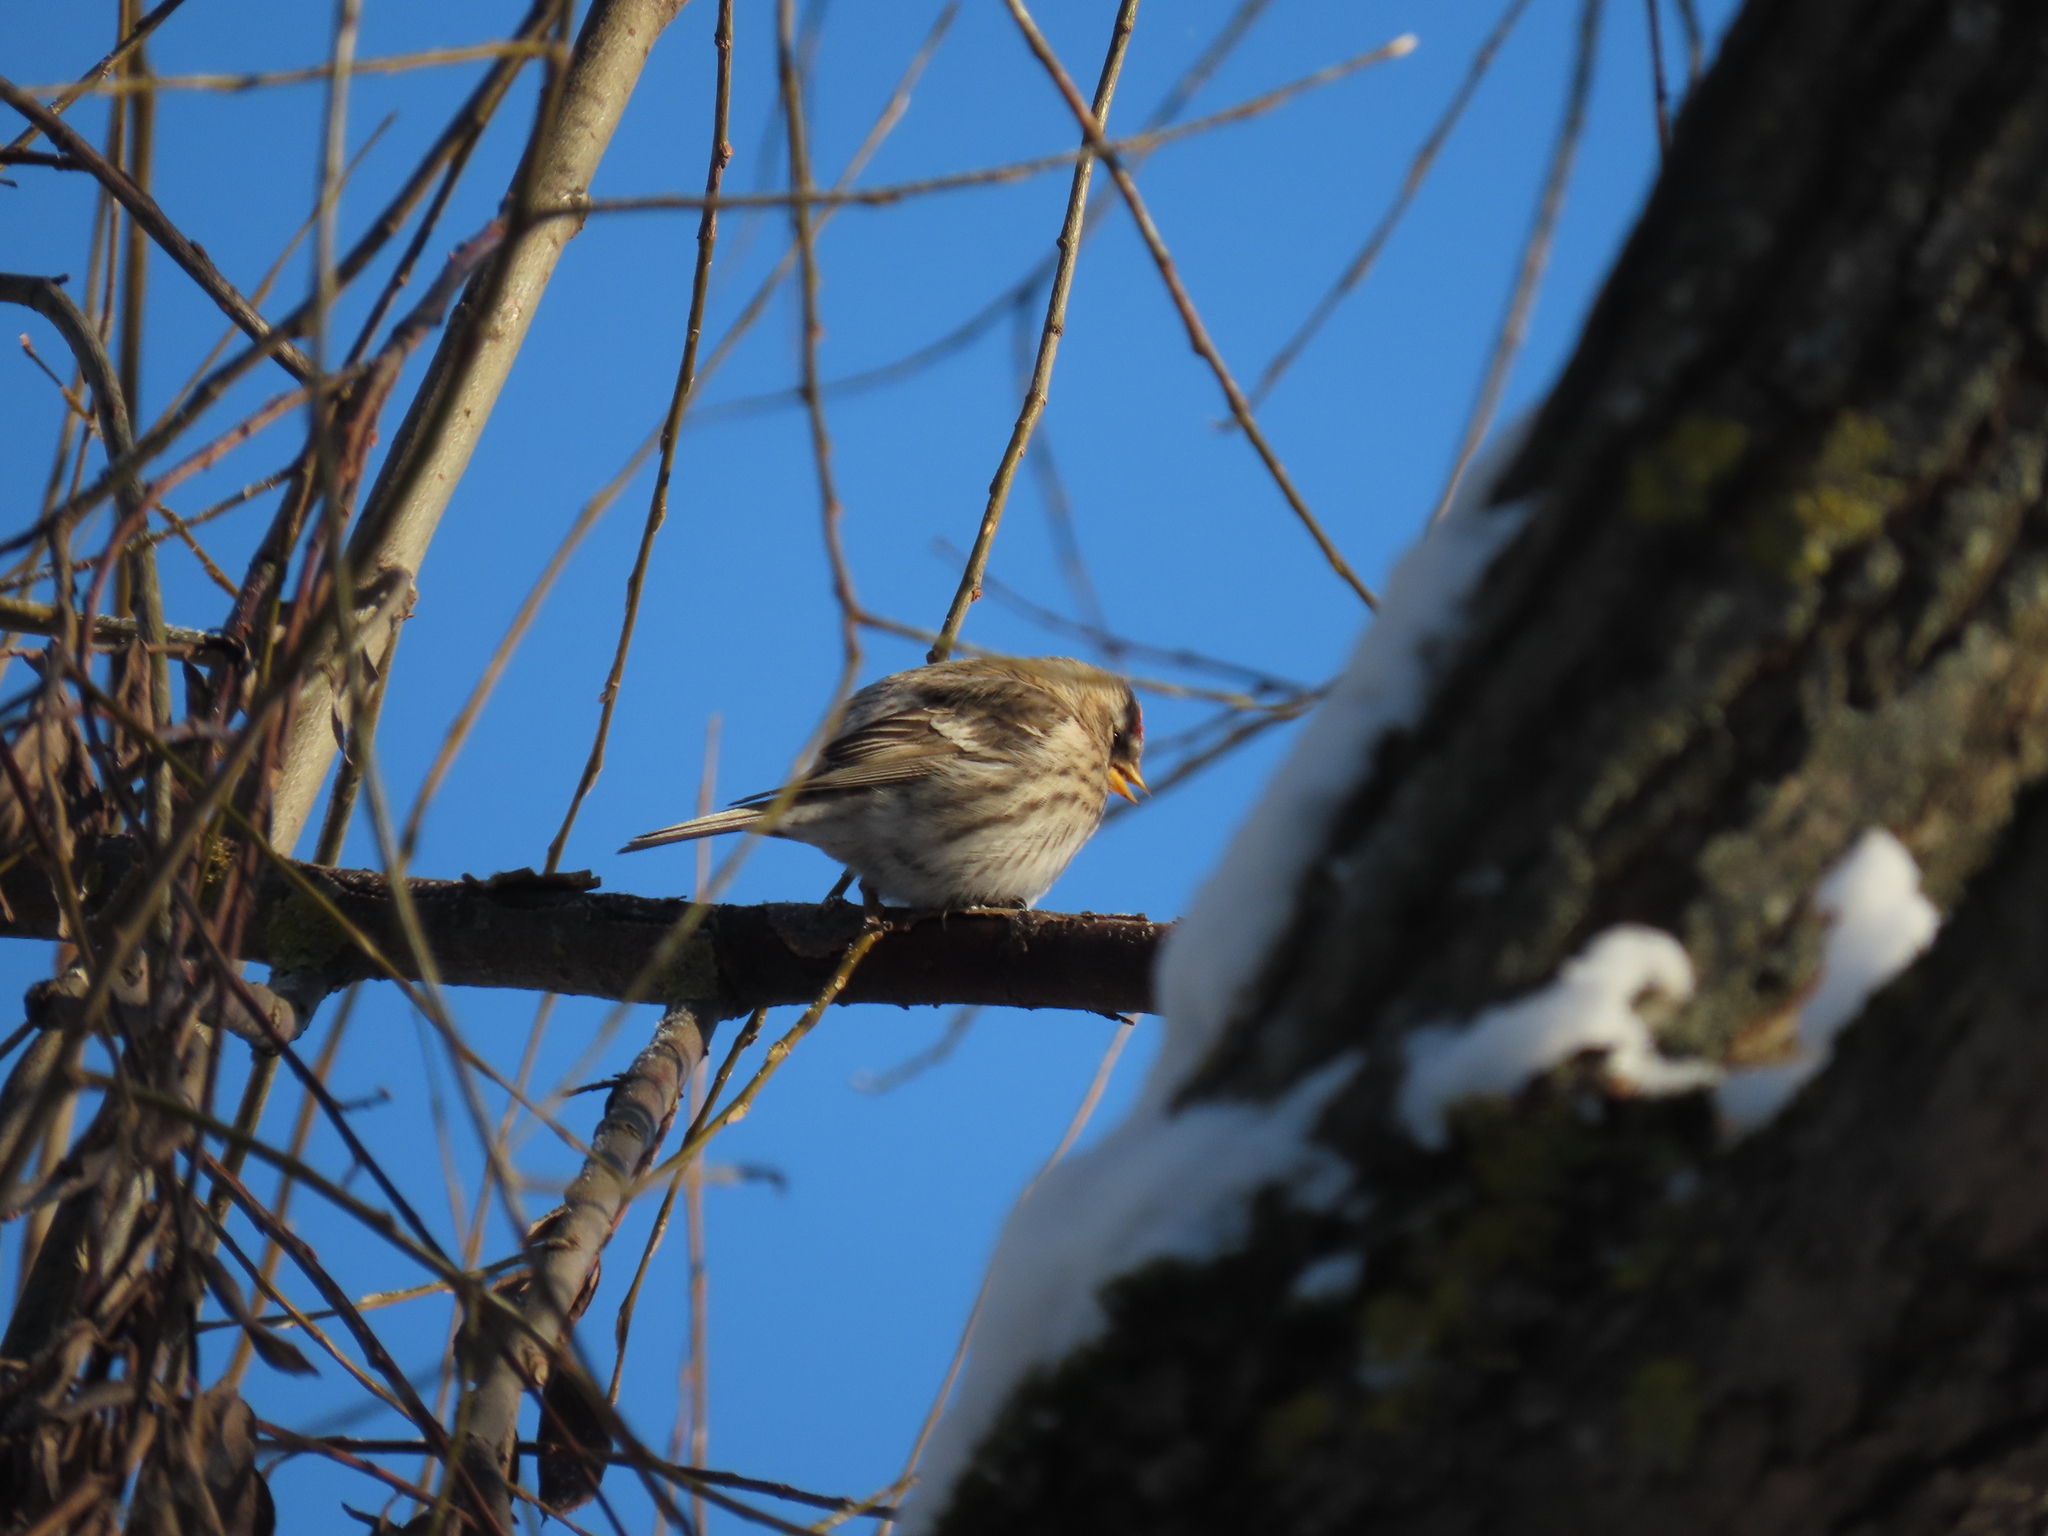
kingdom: Animalia
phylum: Chordata
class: Aves
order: Passeriformes
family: Fringillidae
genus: Acanthis
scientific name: Acanthis flammea
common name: Common redpoll
